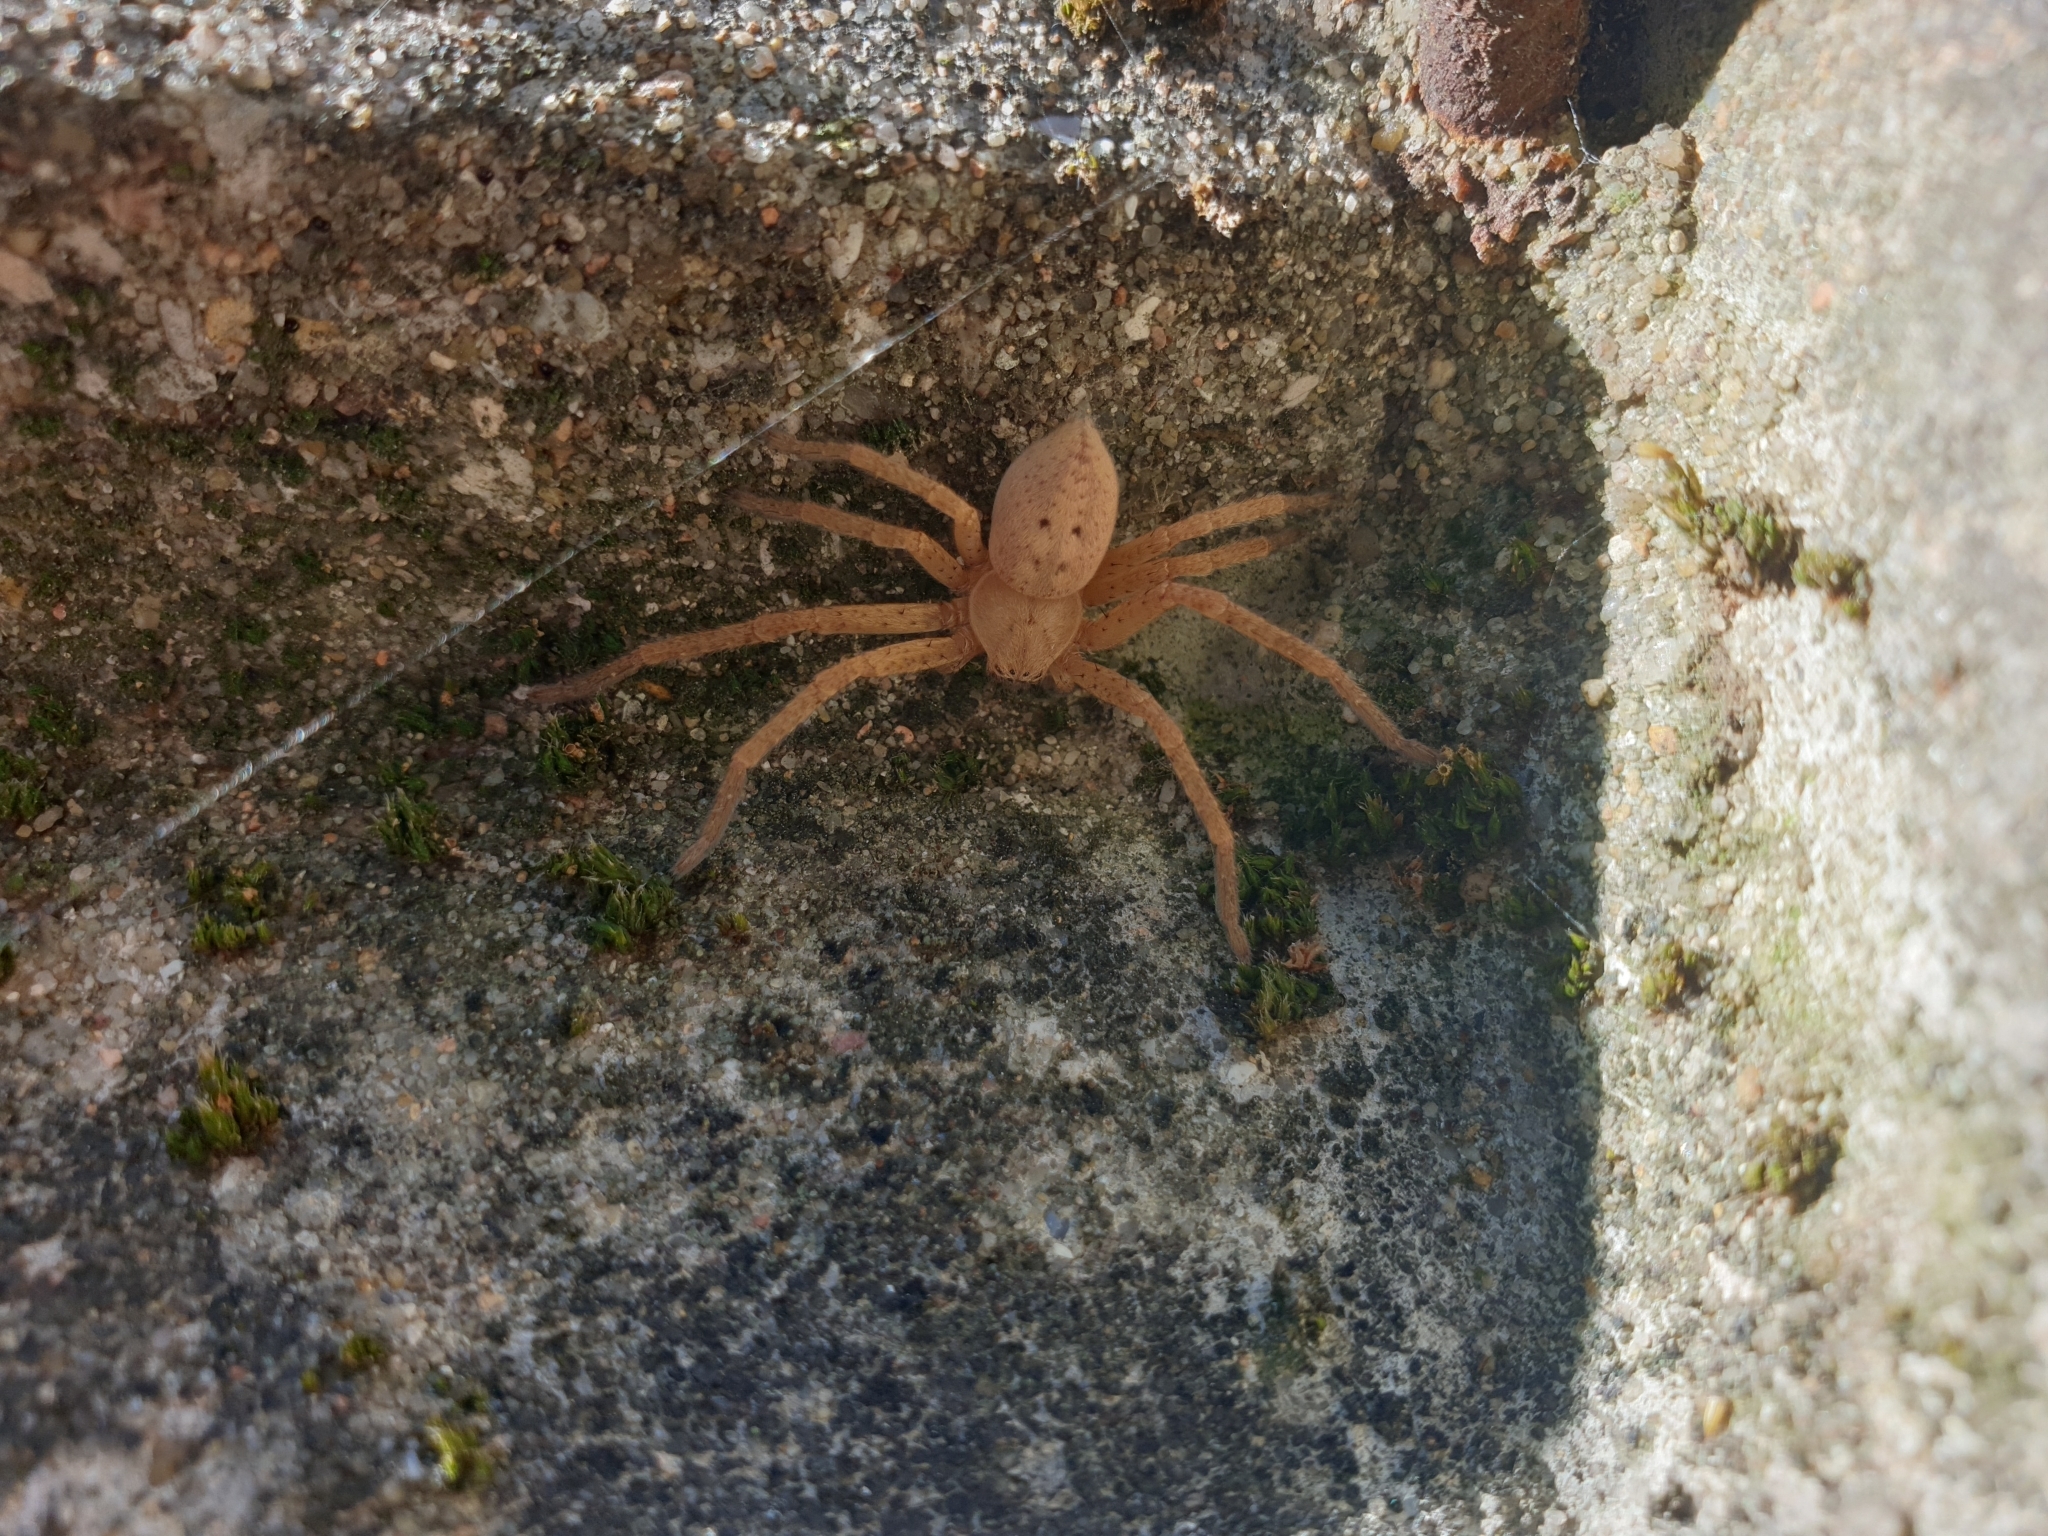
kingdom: Animalia
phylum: Arthropoda
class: Arachnida
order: Araneae
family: Sparassidae
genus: Olios
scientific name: Olios argelasius
